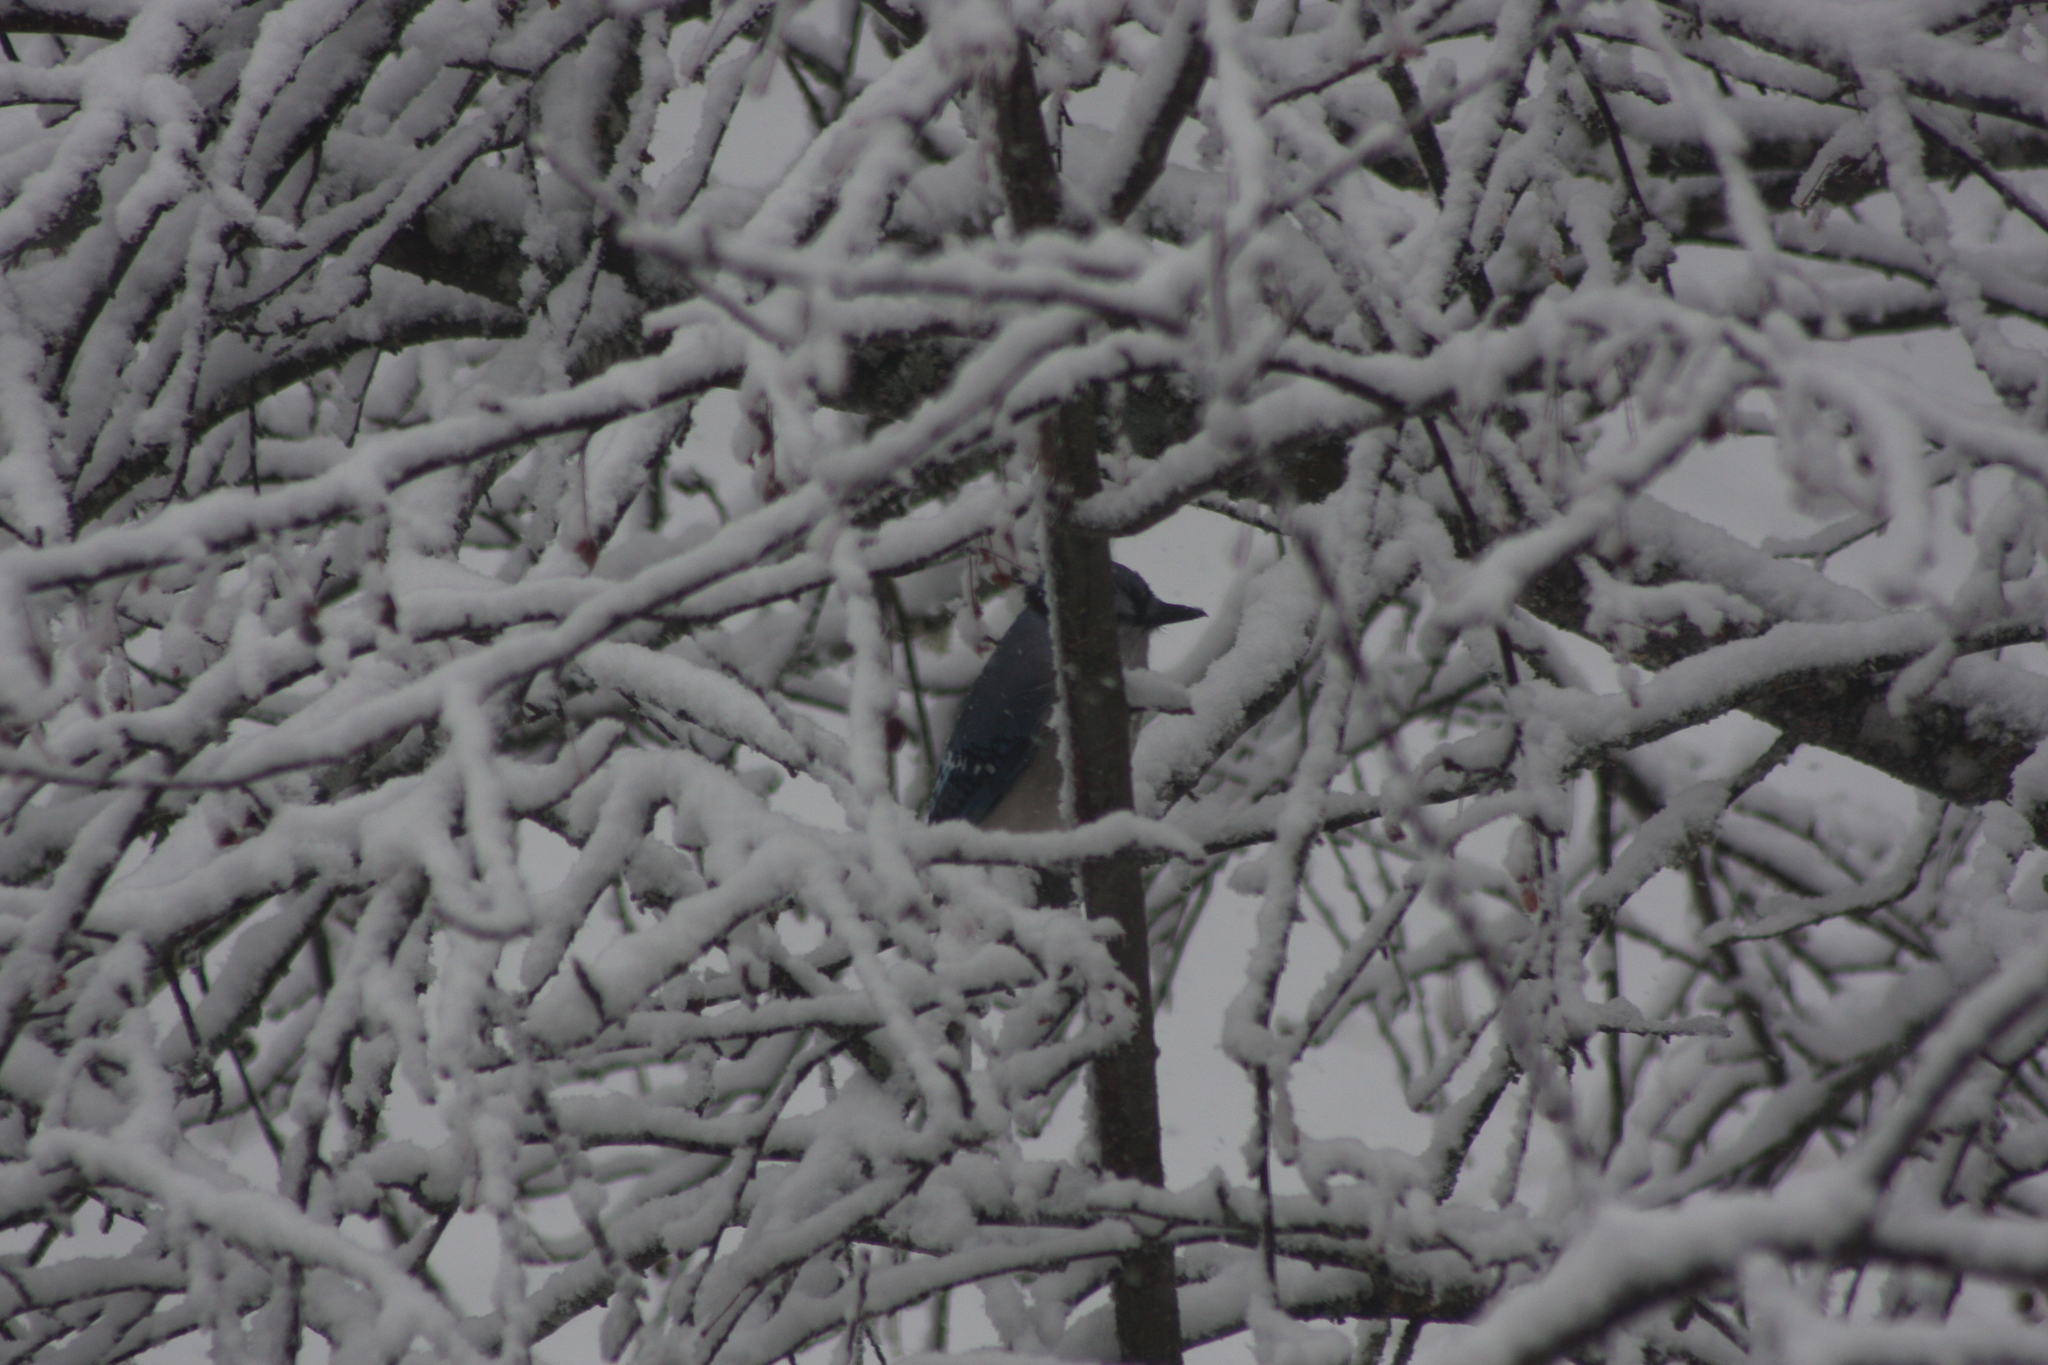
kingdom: Animalia
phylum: Chordata
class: Aves
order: Passeriformes
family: Corvidae
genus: Cyanocitta
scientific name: Cyanocitta cristata
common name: Blue jay
